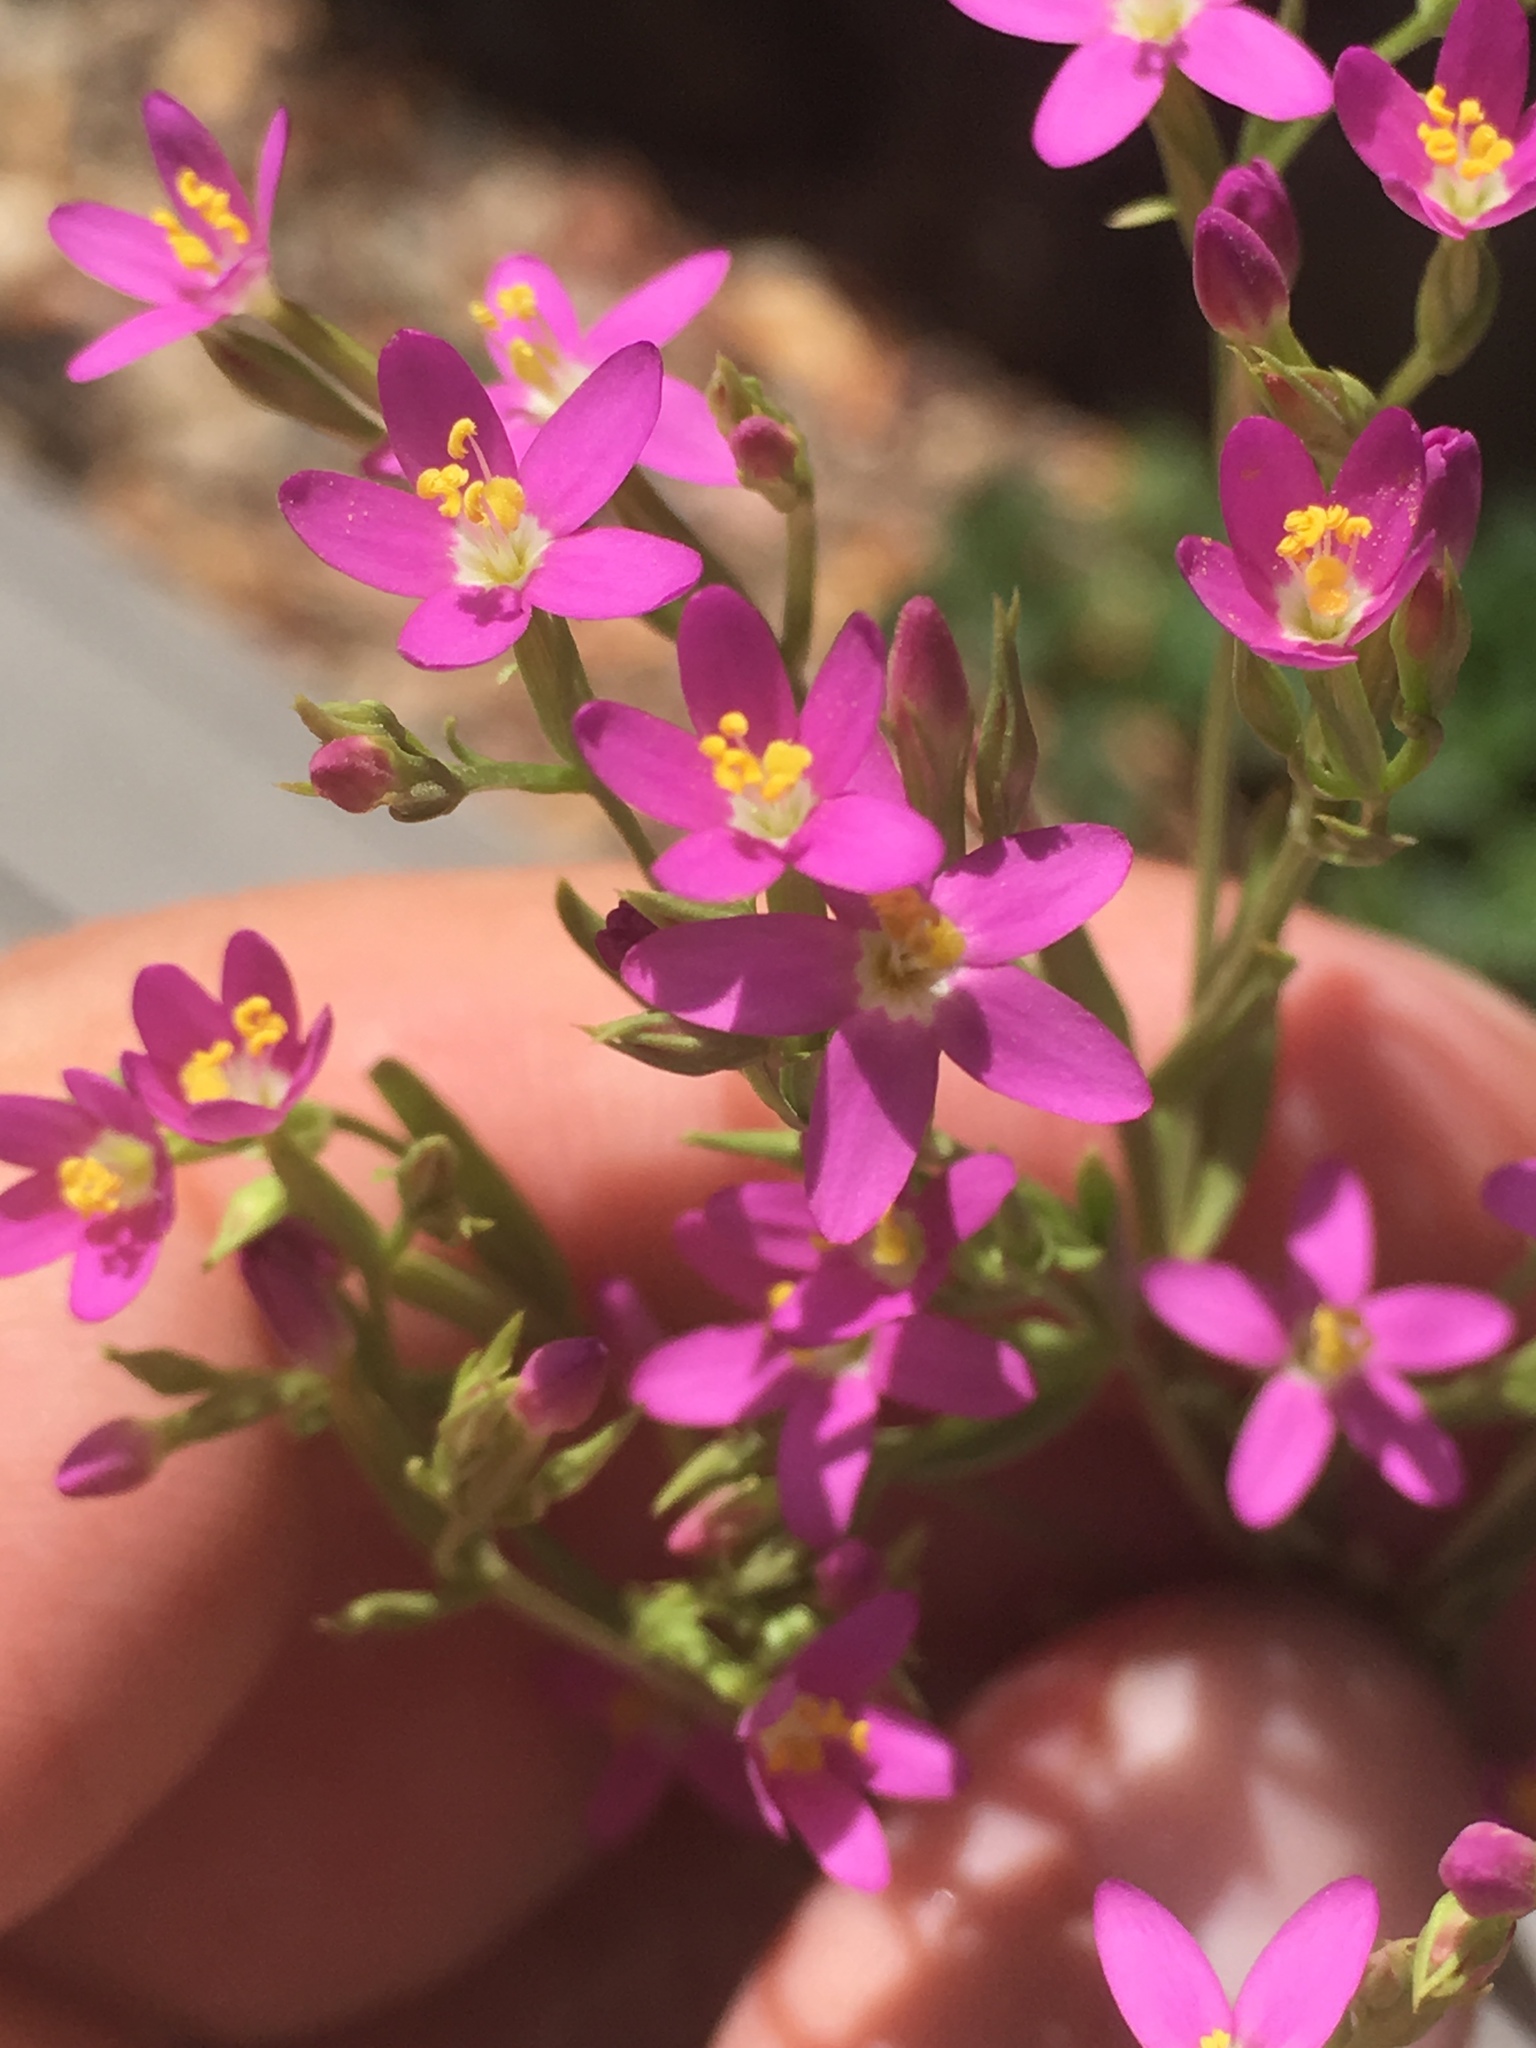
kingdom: Plantae
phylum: Tracheophyta
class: Magnoliopsida
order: Gentianales
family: Gentianaceae
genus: Zeltnera
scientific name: Zeltnera muhlenbergii
